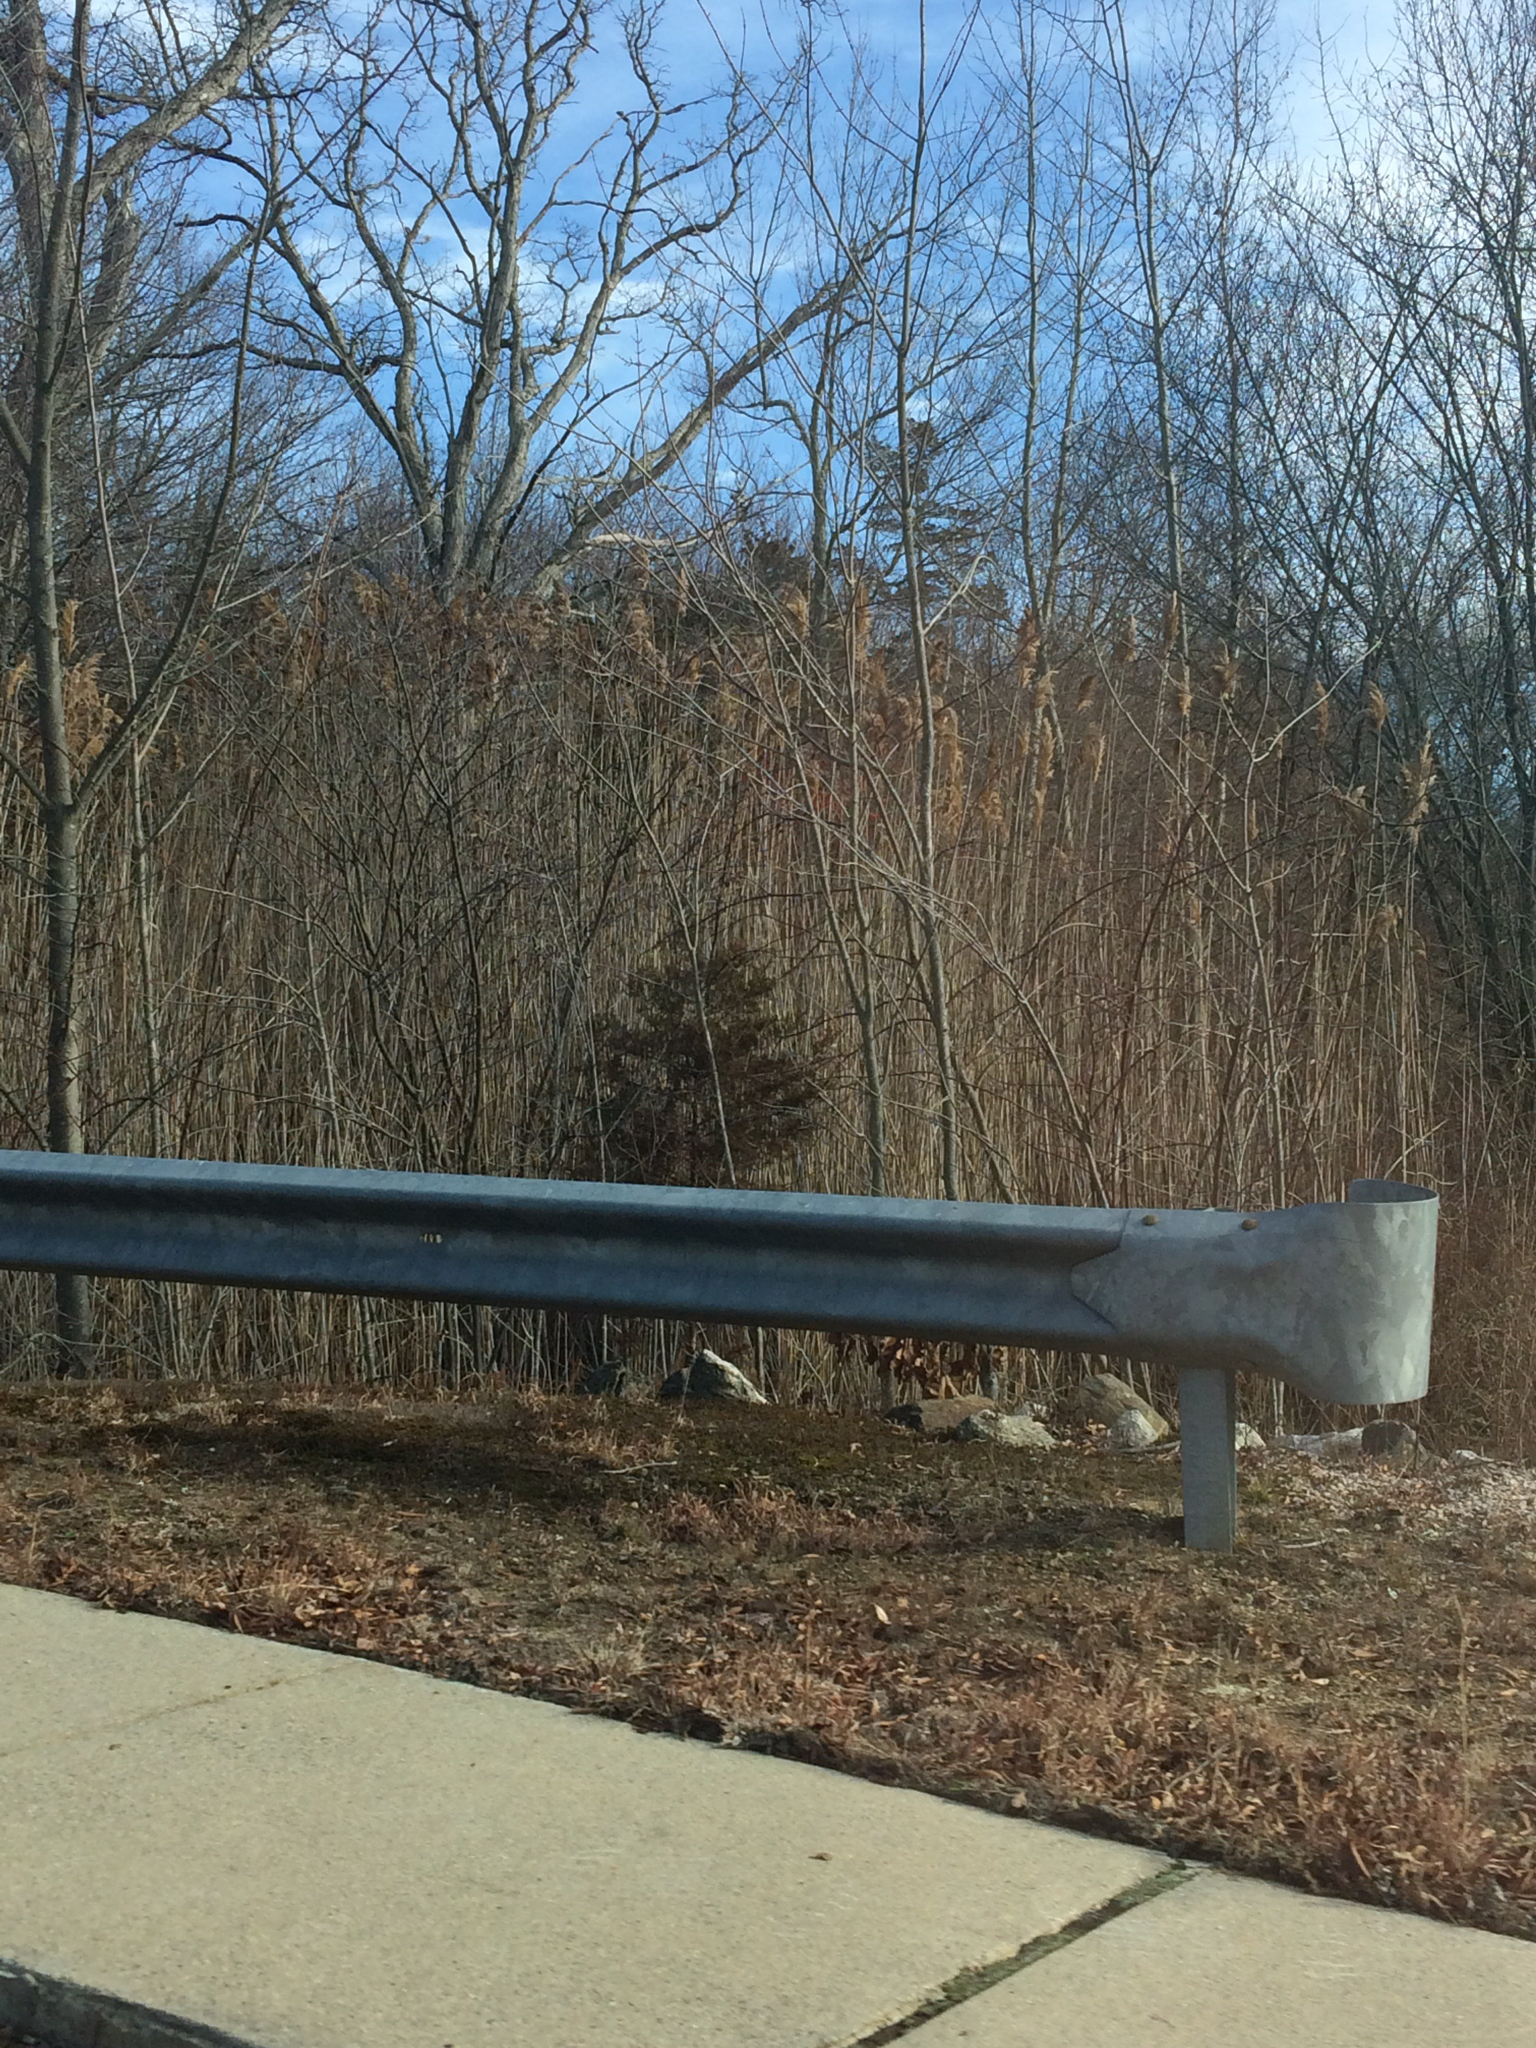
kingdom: Plantae
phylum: Tracheophyta
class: Liliopsida
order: Poales
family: Poaceae
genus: Phragmites
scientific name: Phragmites australis
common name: Common reed
